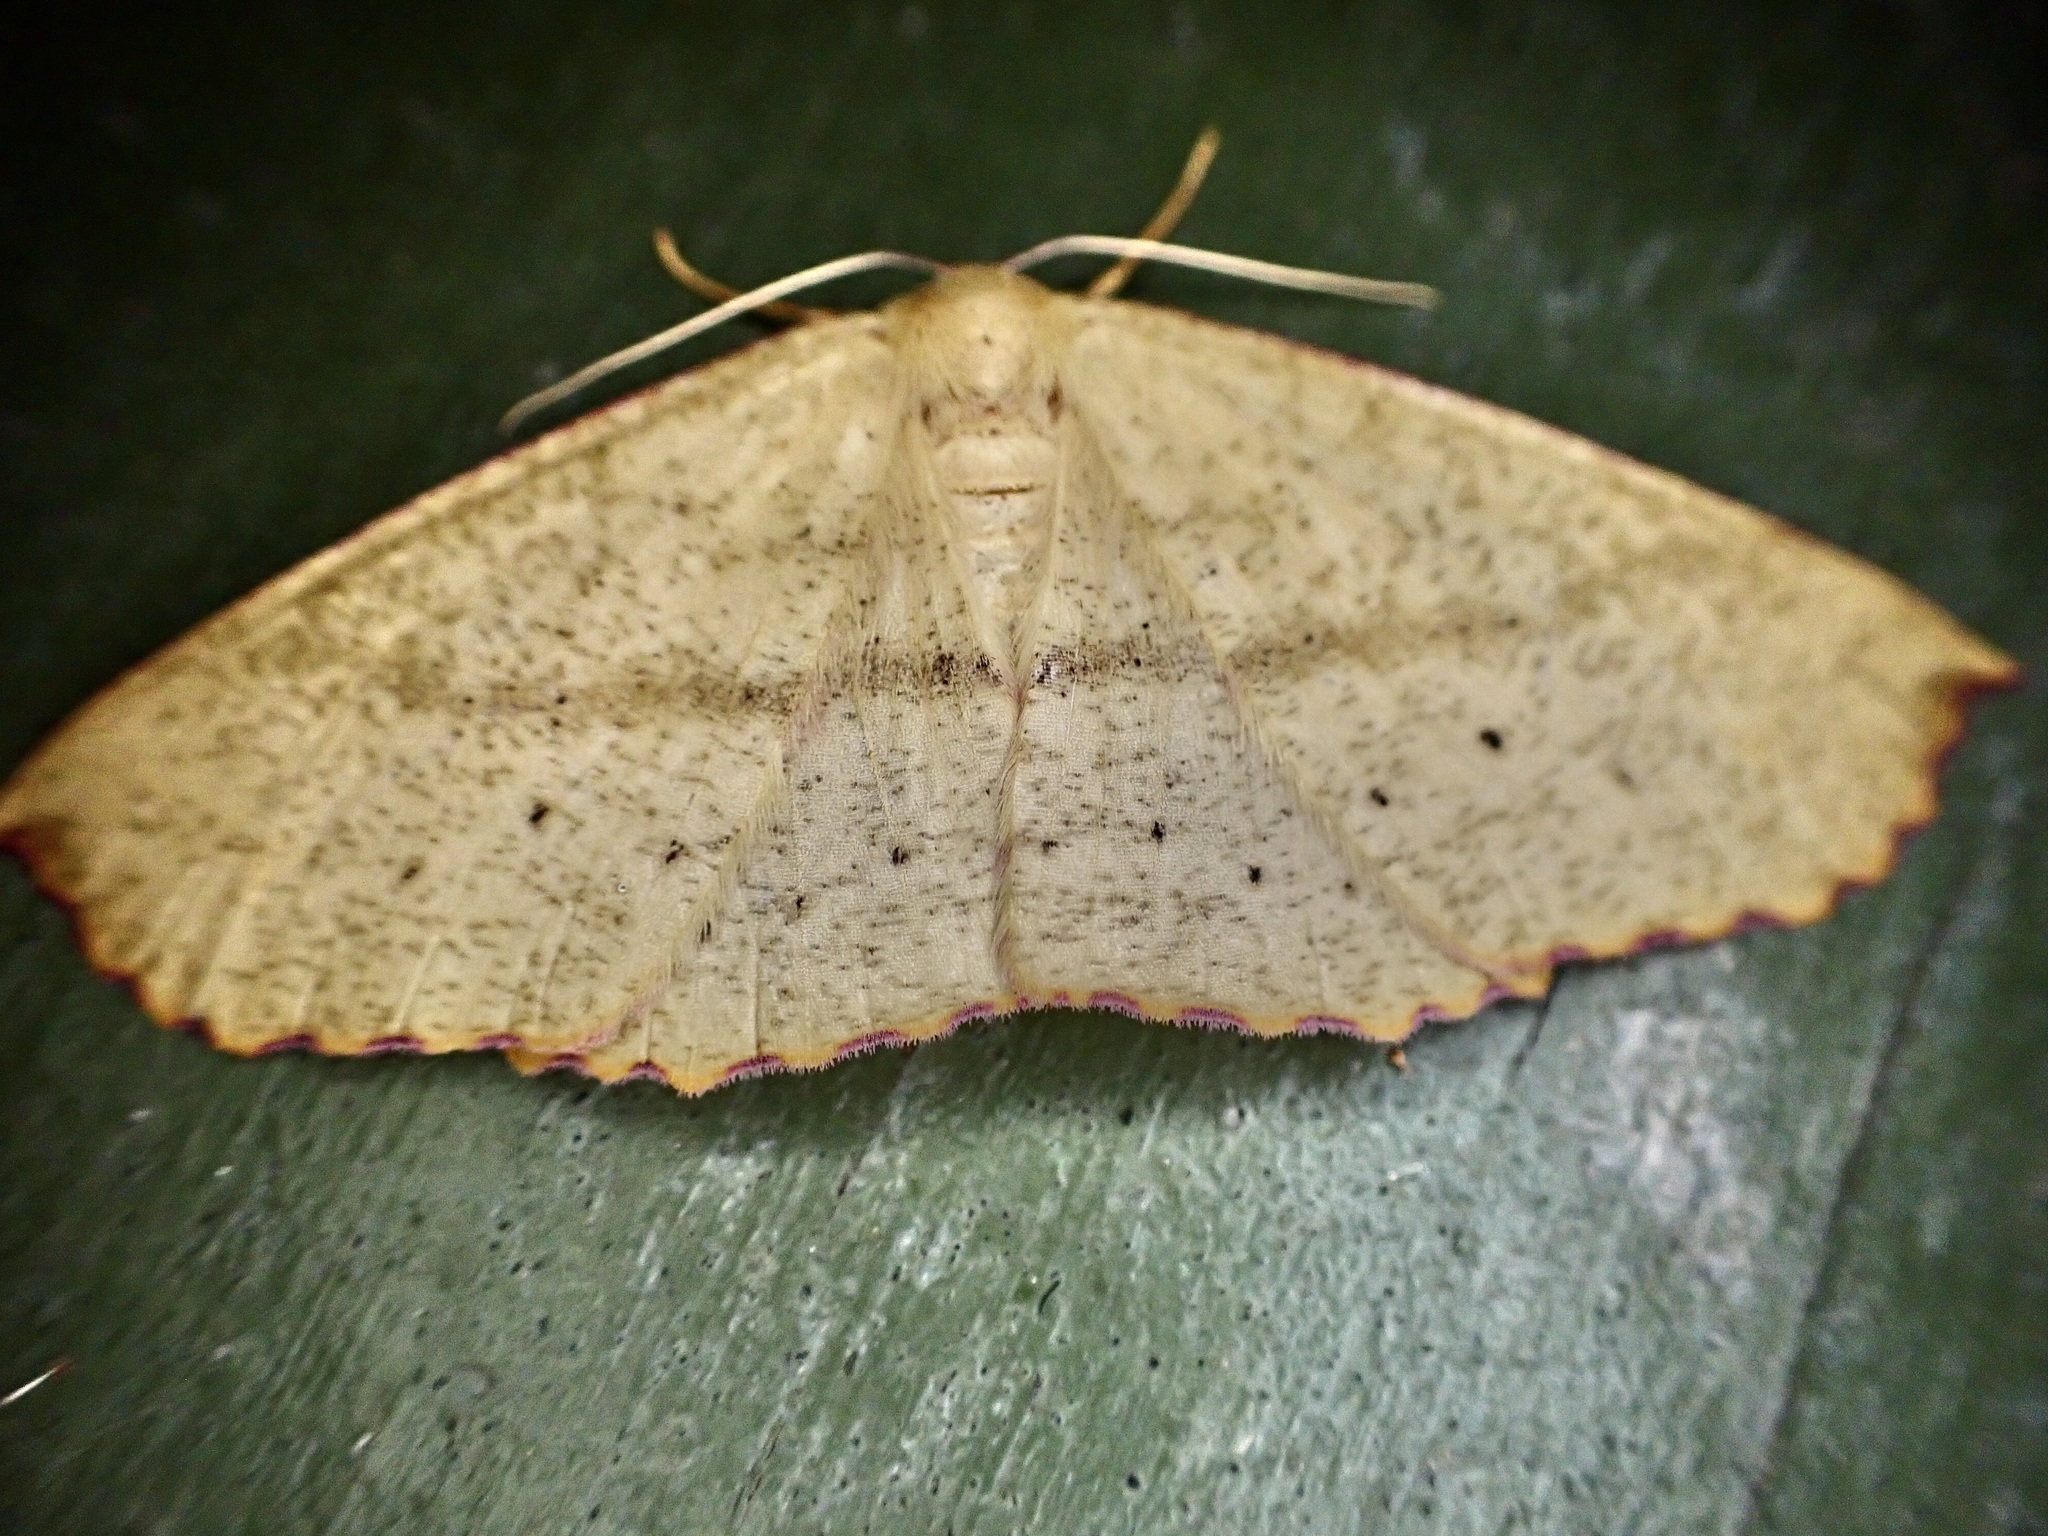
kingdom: Animalia
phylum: Arthropoda
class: Insecta
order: Lepidoptera
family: Geometridae
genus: Xyridacma
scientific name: Xyridacma alectoraria
